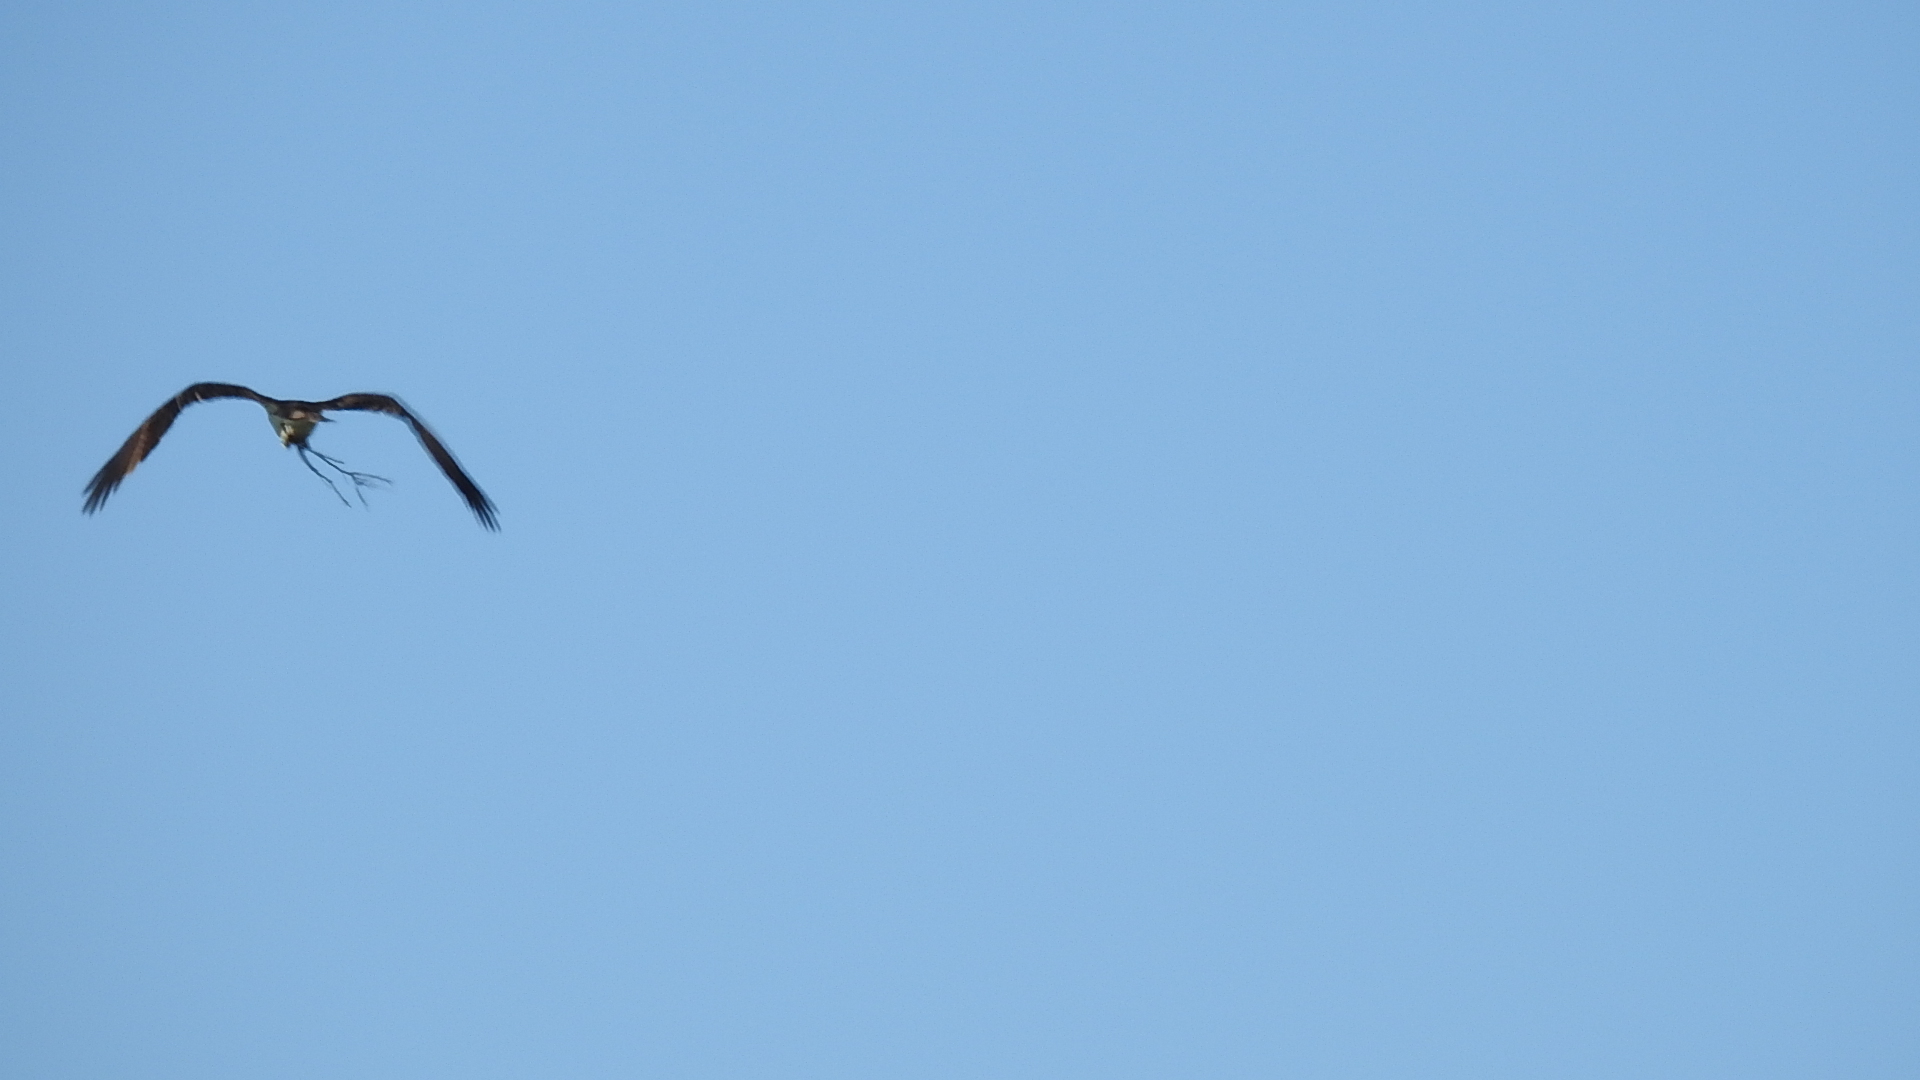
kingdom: Animalia
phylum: Chordata
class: Aves
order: Accipitriformes
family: Pandionidae
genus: Pandion
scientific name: Pandion haliaetus
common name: Osprey
